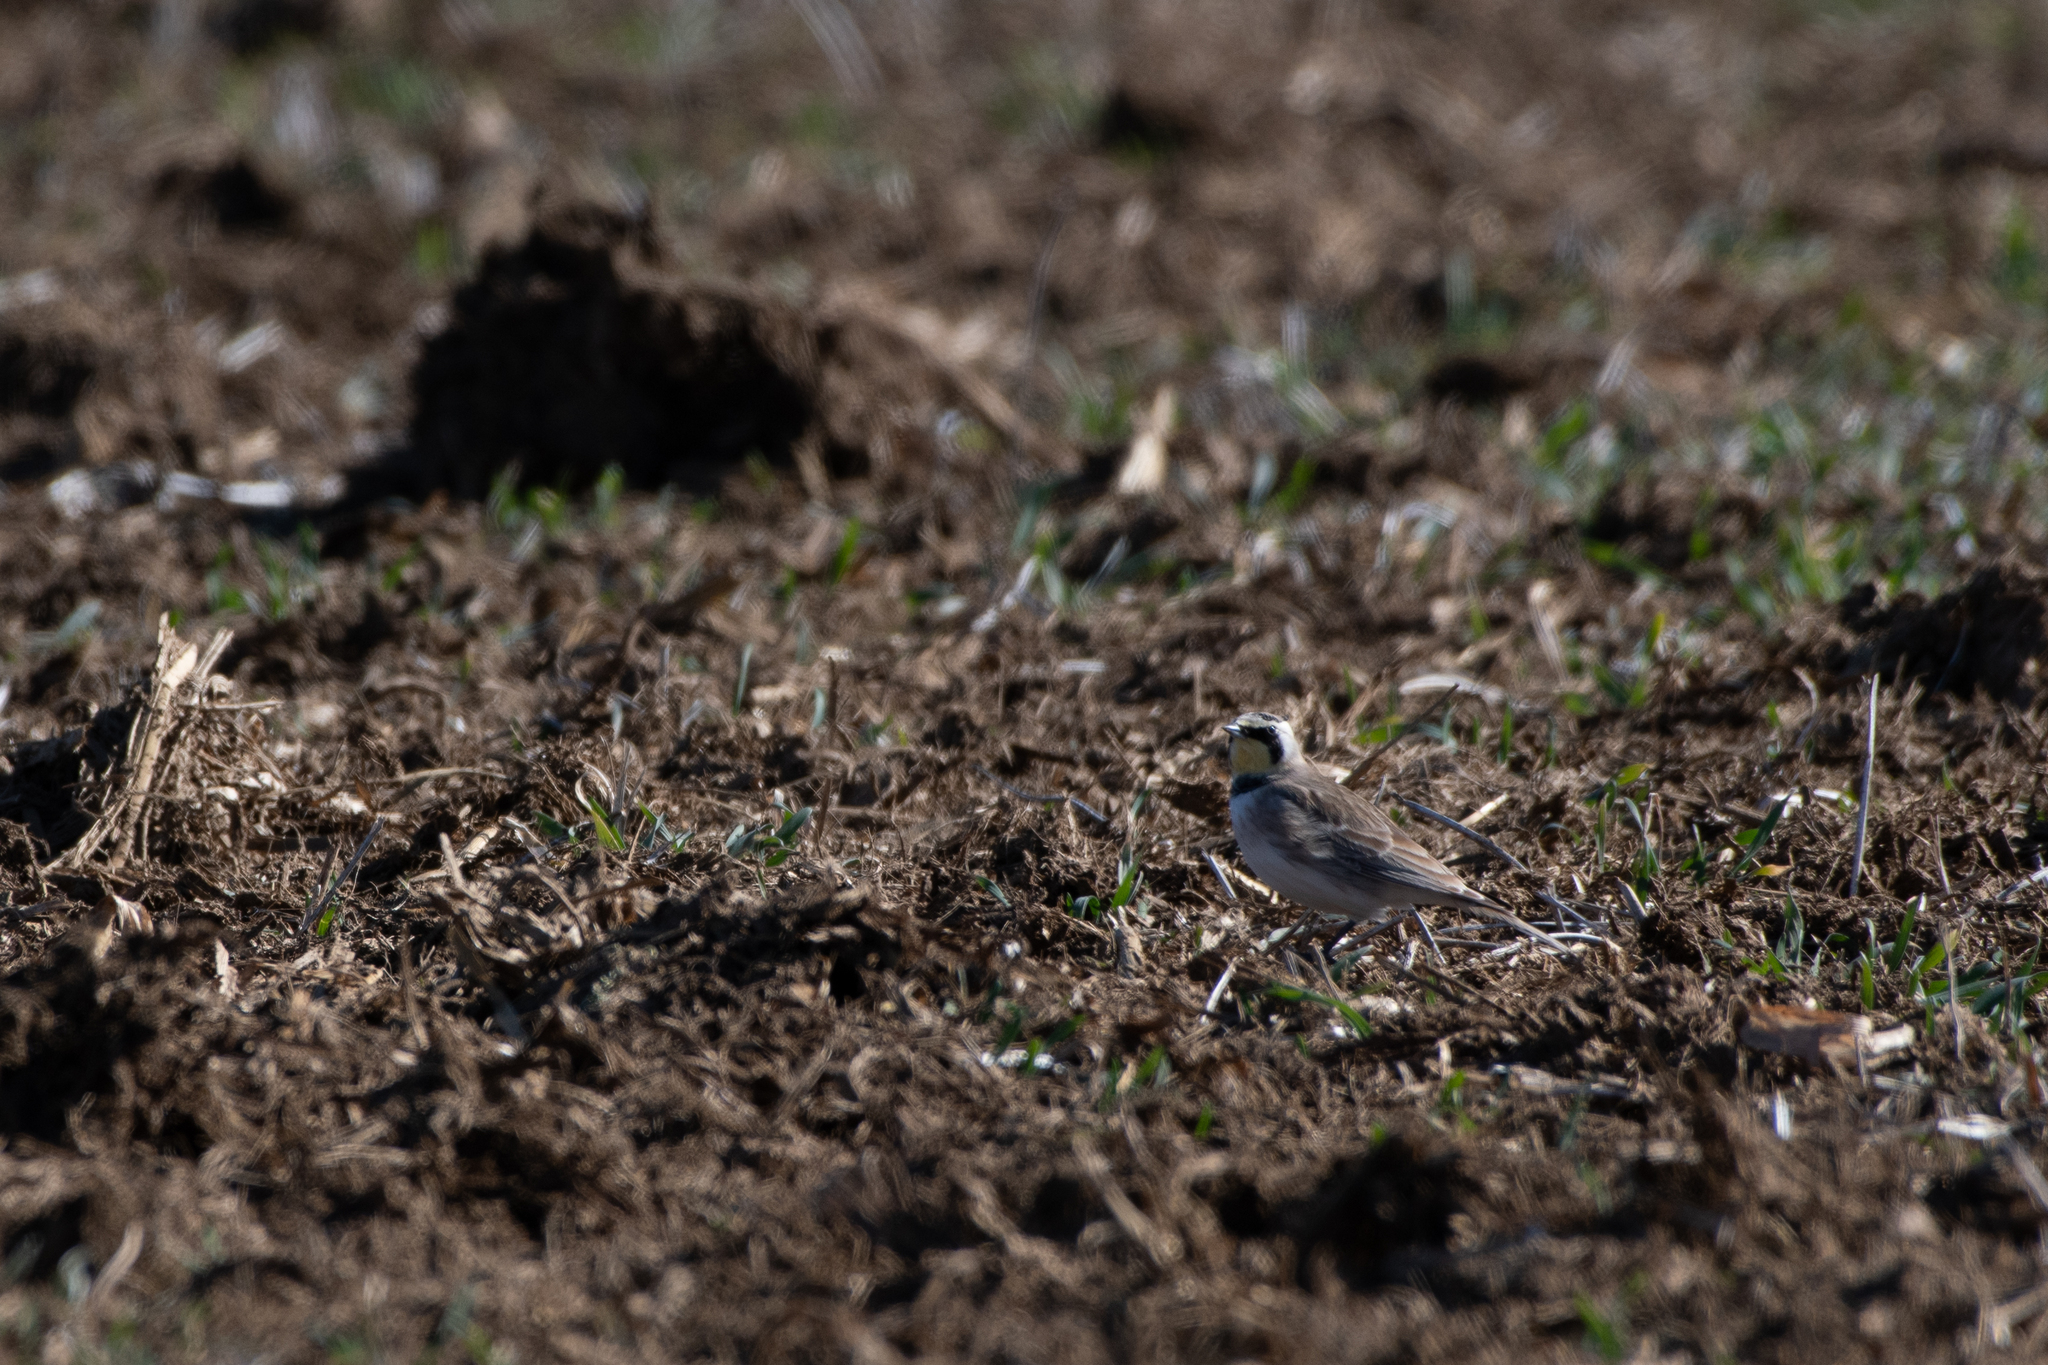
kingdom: Animalia
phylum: Chordata
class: Aves
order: Passeriformes
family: Alaudidae
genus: Eremophila
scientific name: Eremophila alpestris
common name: Horned lark
